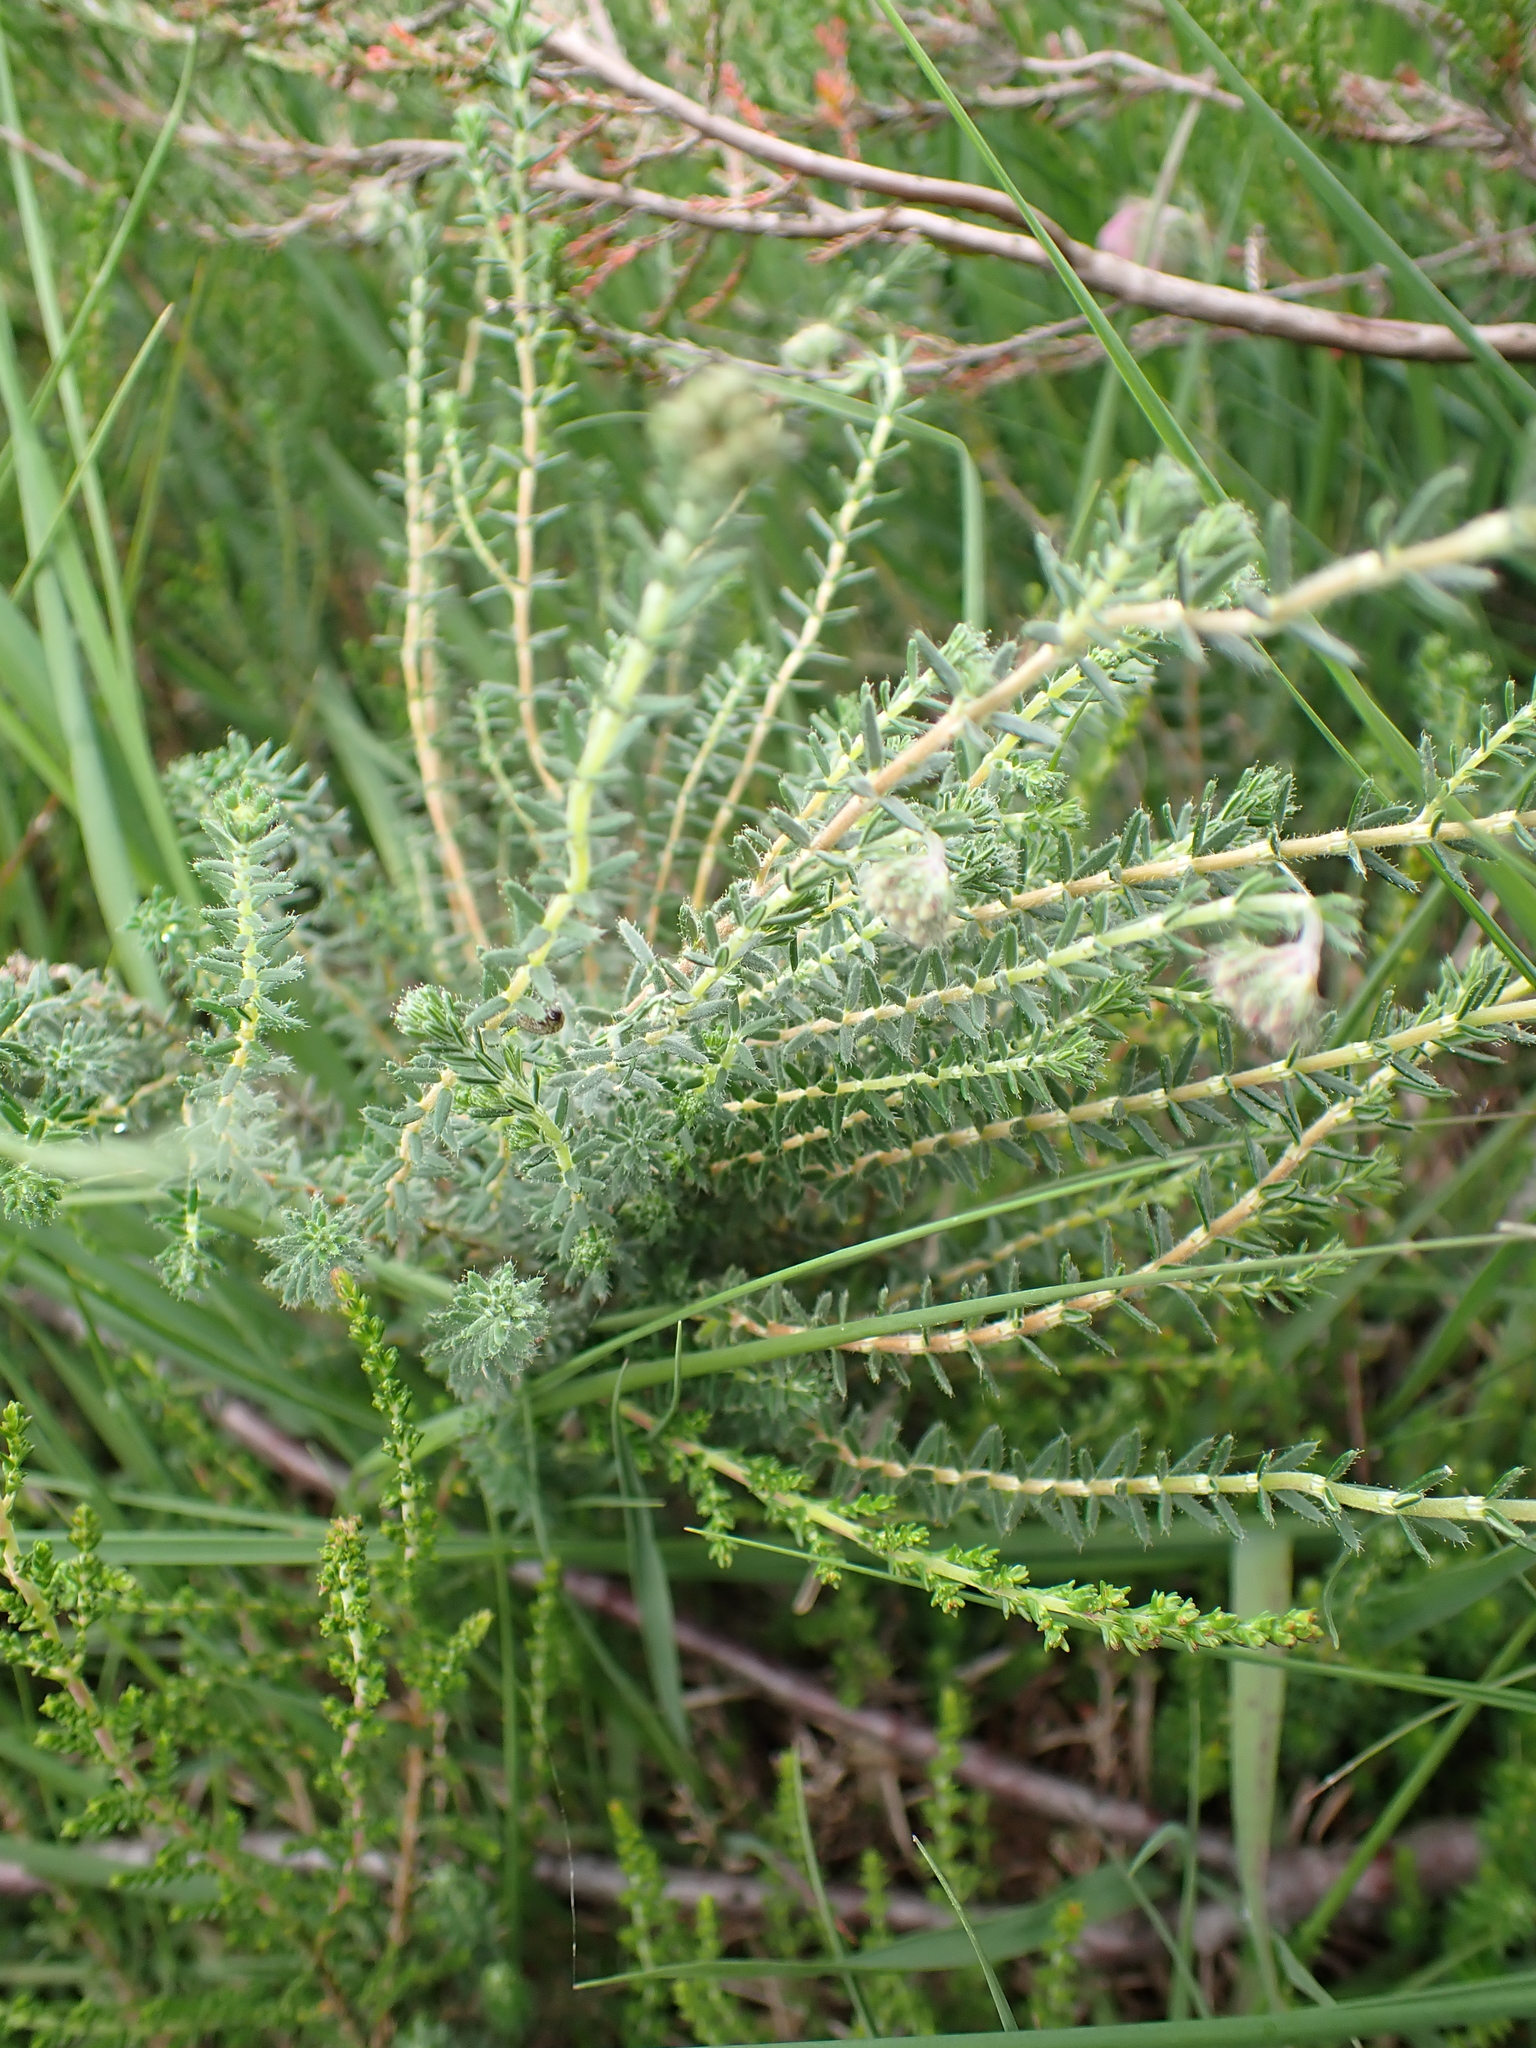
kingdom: Plantae
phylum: Tracheophyta
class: Magnoliopsida
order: Ericales
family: Ericaceae
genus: Erica
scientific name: Erica tetralix
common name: Cross-leaved heath
